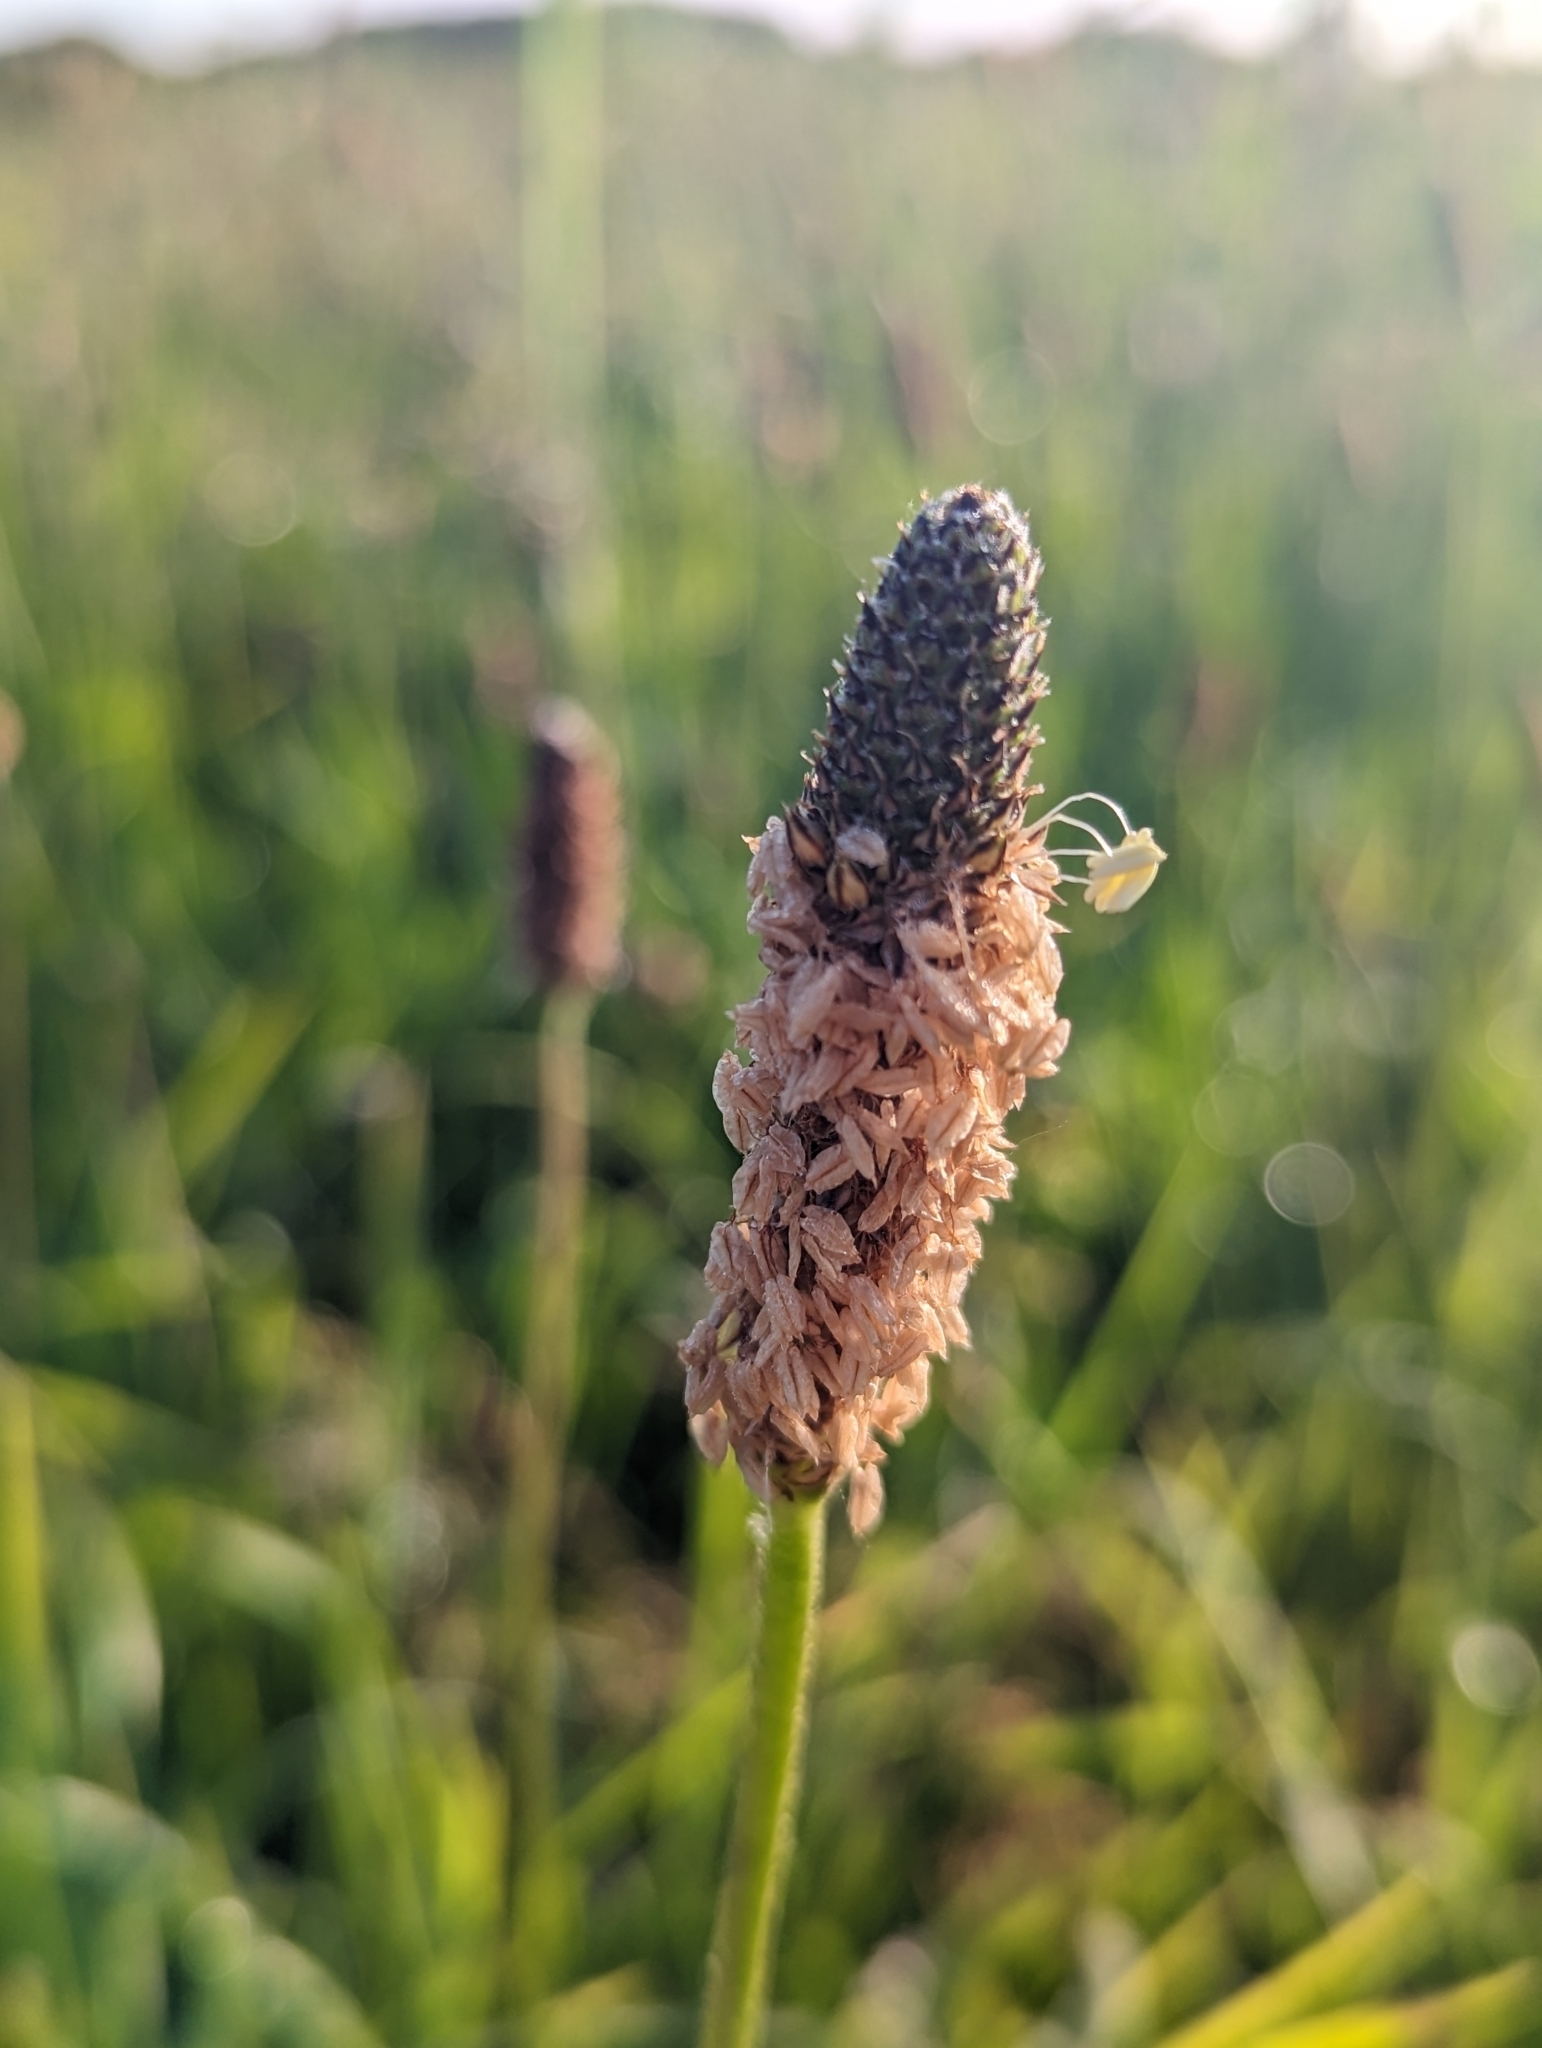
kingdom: Plantae
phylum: Tracheophyta
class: Magnoliopsida
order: Lamiales
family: Plantaginaceae
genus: Plantago
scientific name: Plantago lanceolata
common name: Ribwort plantain
